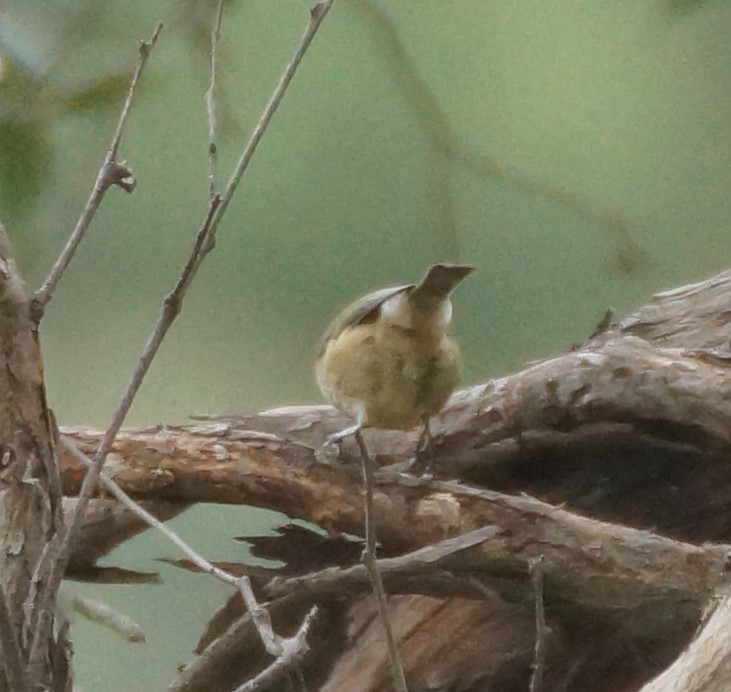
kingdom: Animalia
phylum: Chordata
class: Aves
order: Passeriformes
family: Acanthizidae
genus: Acanthiza
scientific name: Acanthiza pusilla
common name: Brown thornbill
